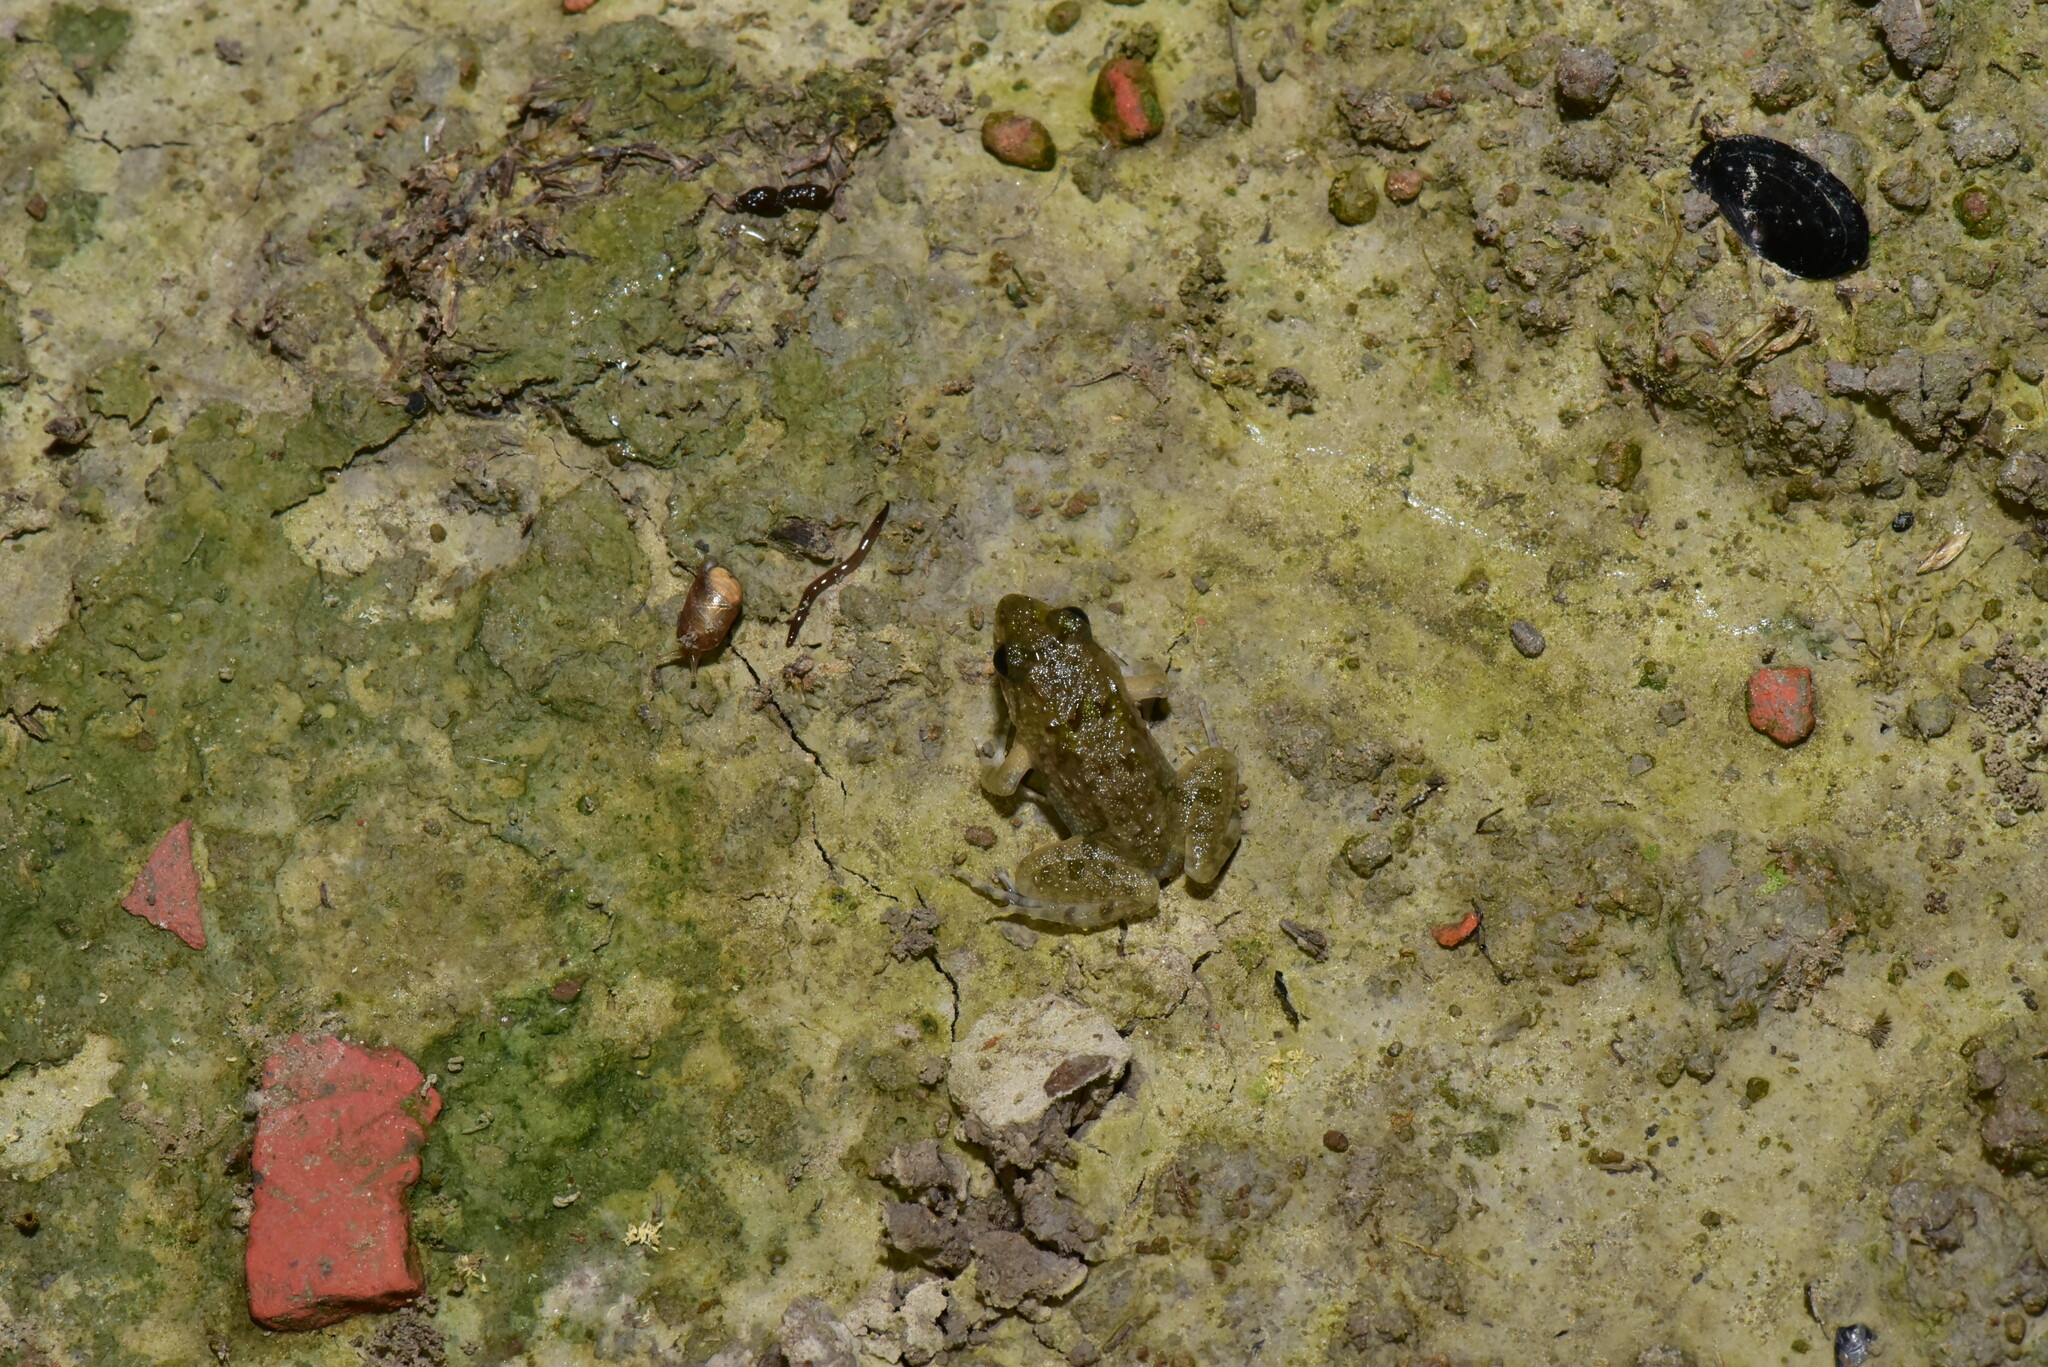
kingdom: Animalia
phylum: Chordata
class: Amphibia
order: Anura
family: Dicroglossidae
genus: Fejervarya
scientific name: Fejervarya limnocharis
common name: Asian grass frog/common pond frog/field frog/grass frog/indian rice frog
